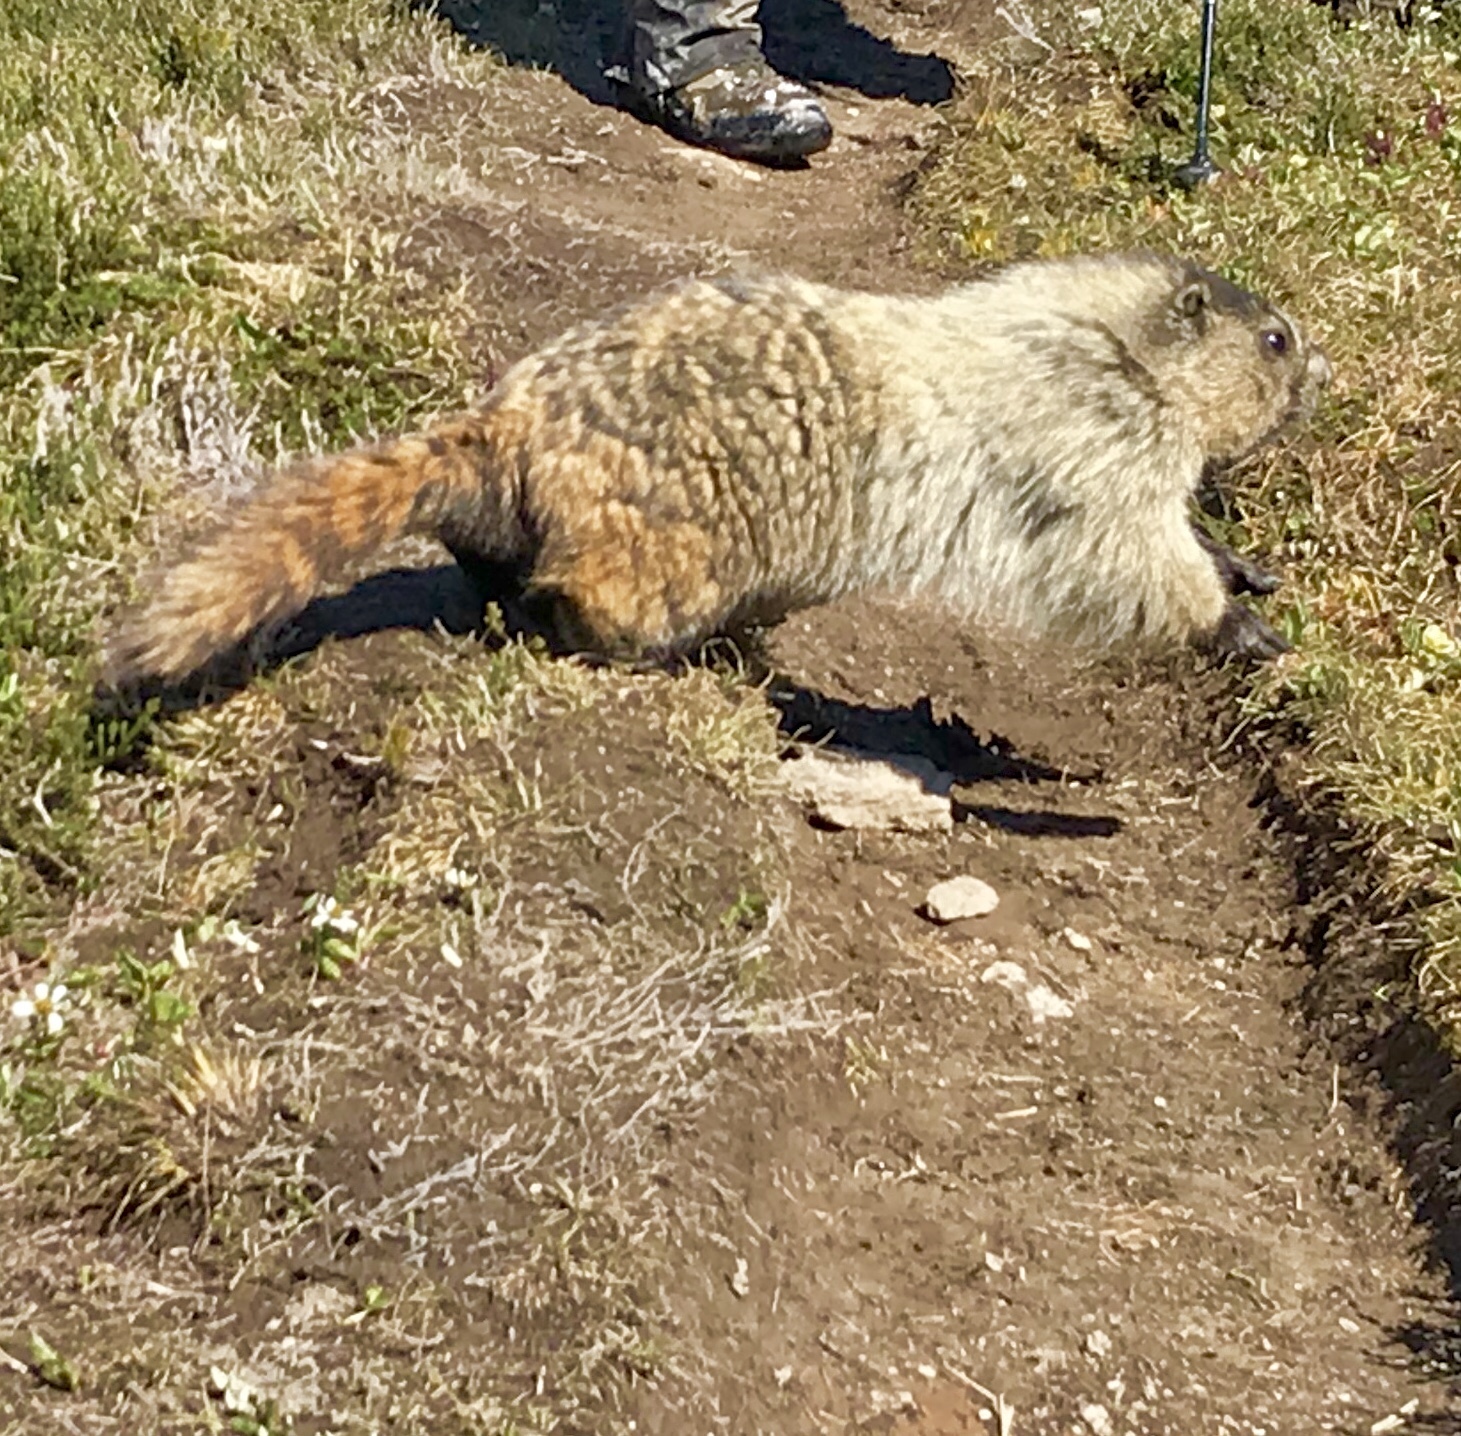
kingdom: Animalia
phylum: Chordata
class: Mammalia
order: Rodentia
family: Sciuridae
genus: Marmota
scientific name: Marmota caligata
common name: Hoary marmot
